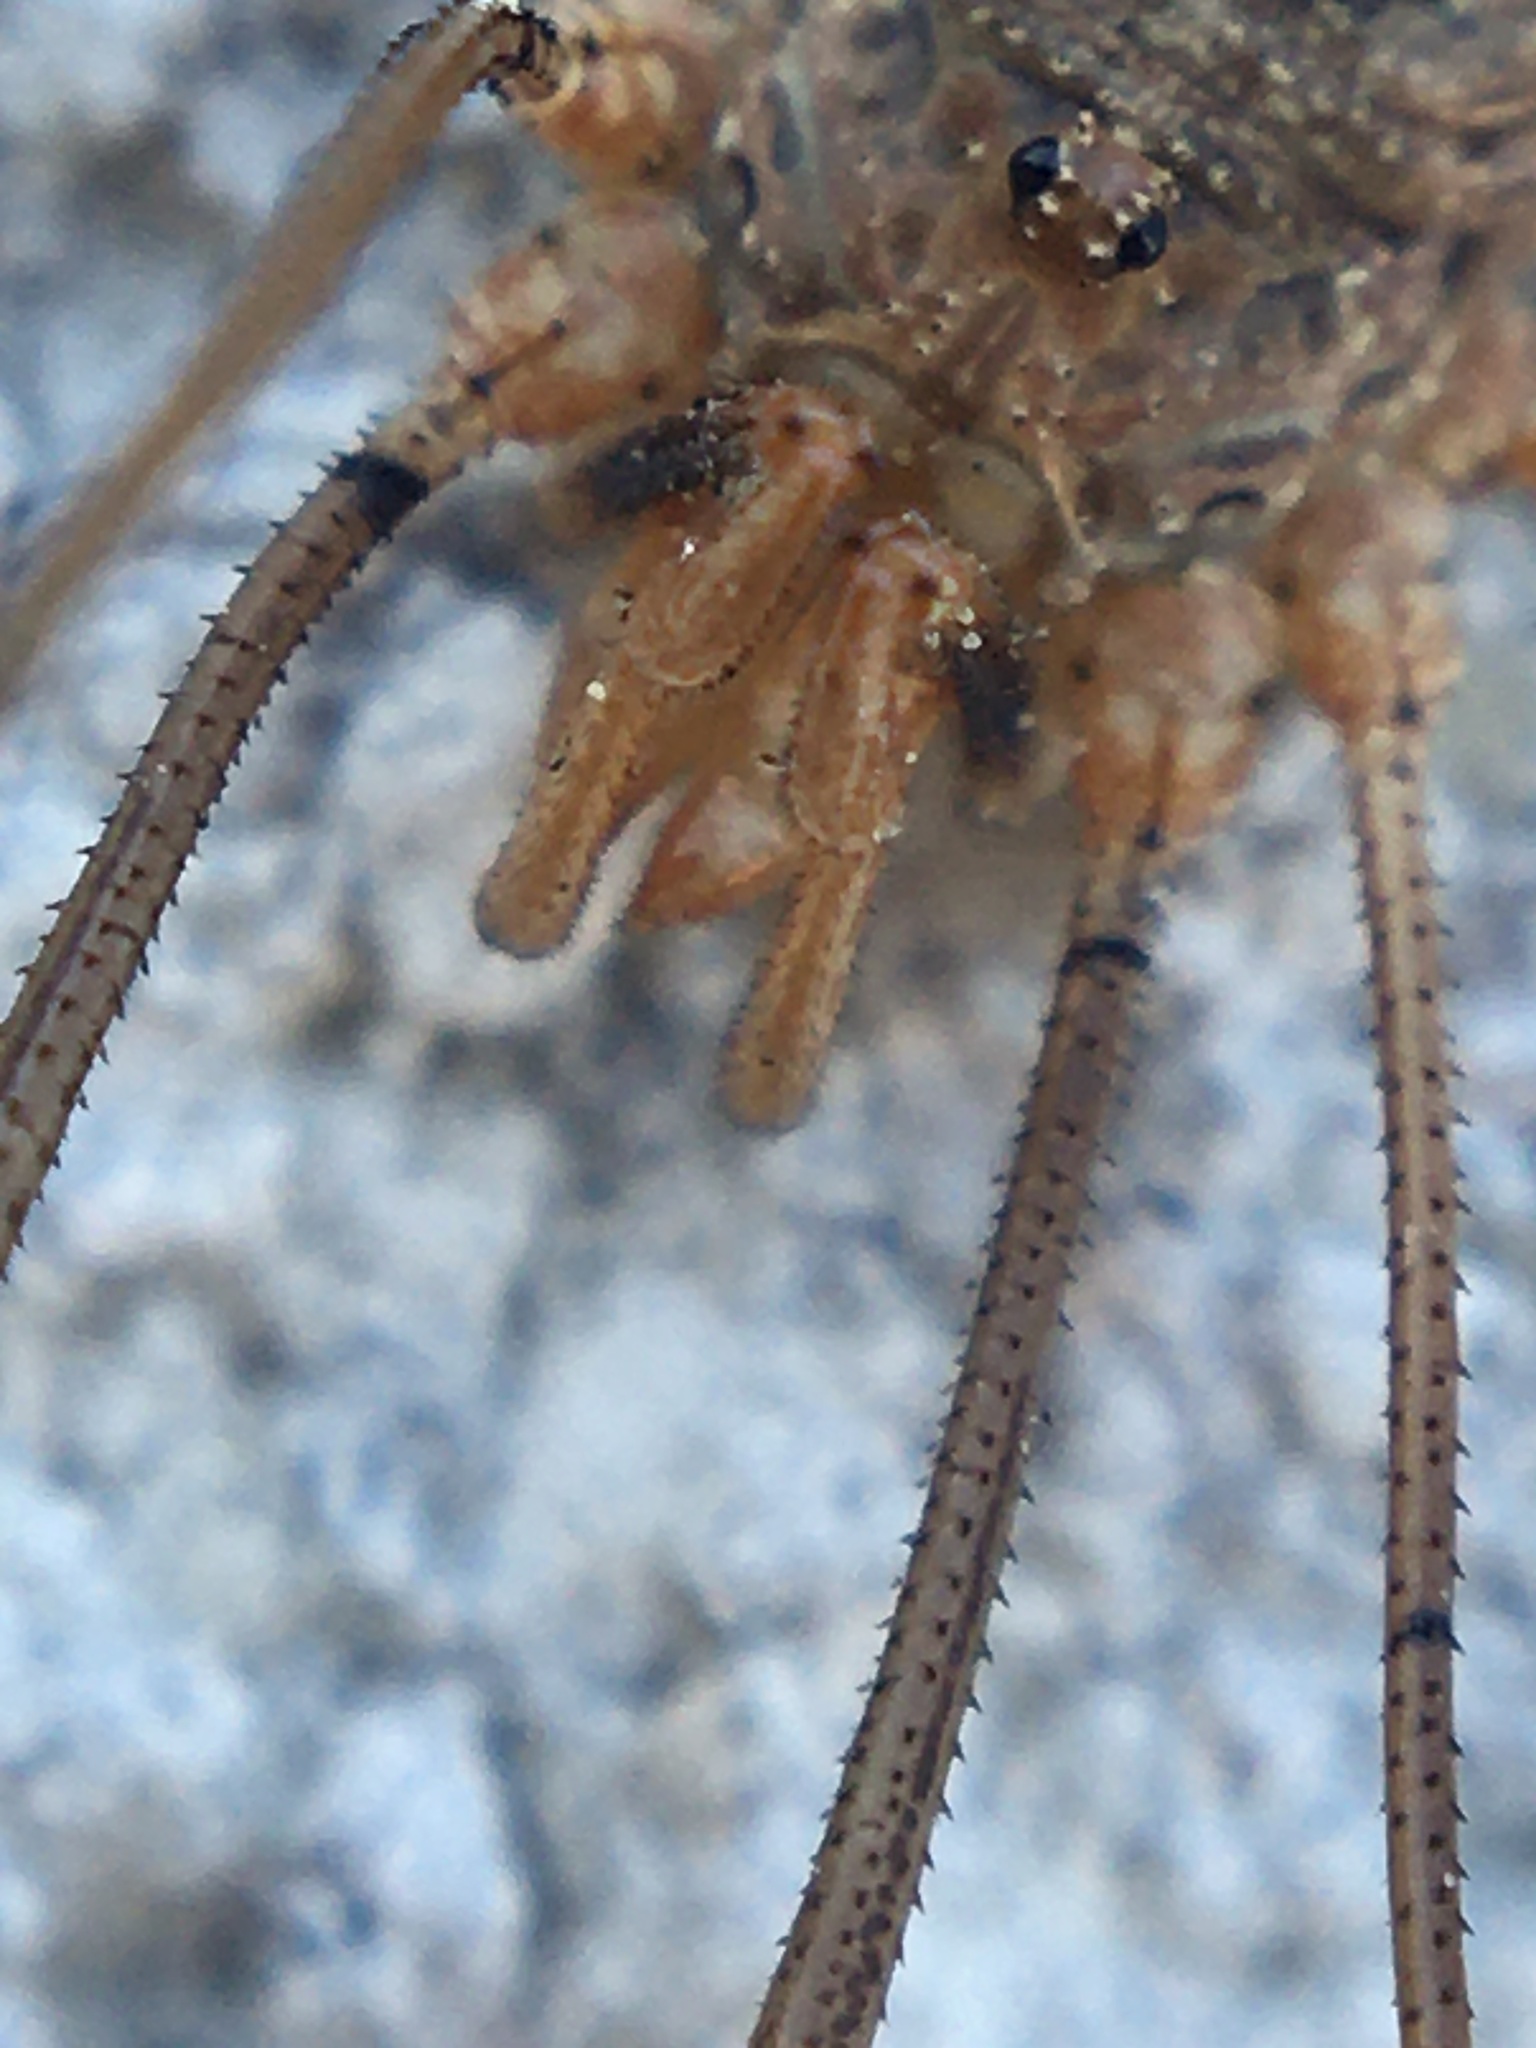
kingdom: Animalia
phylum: Arthropoda
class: Arachnida
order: Opiliones
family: Phalangiidae
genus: Phalangium
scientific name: Phalangium opilio
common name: Daddy longleg
